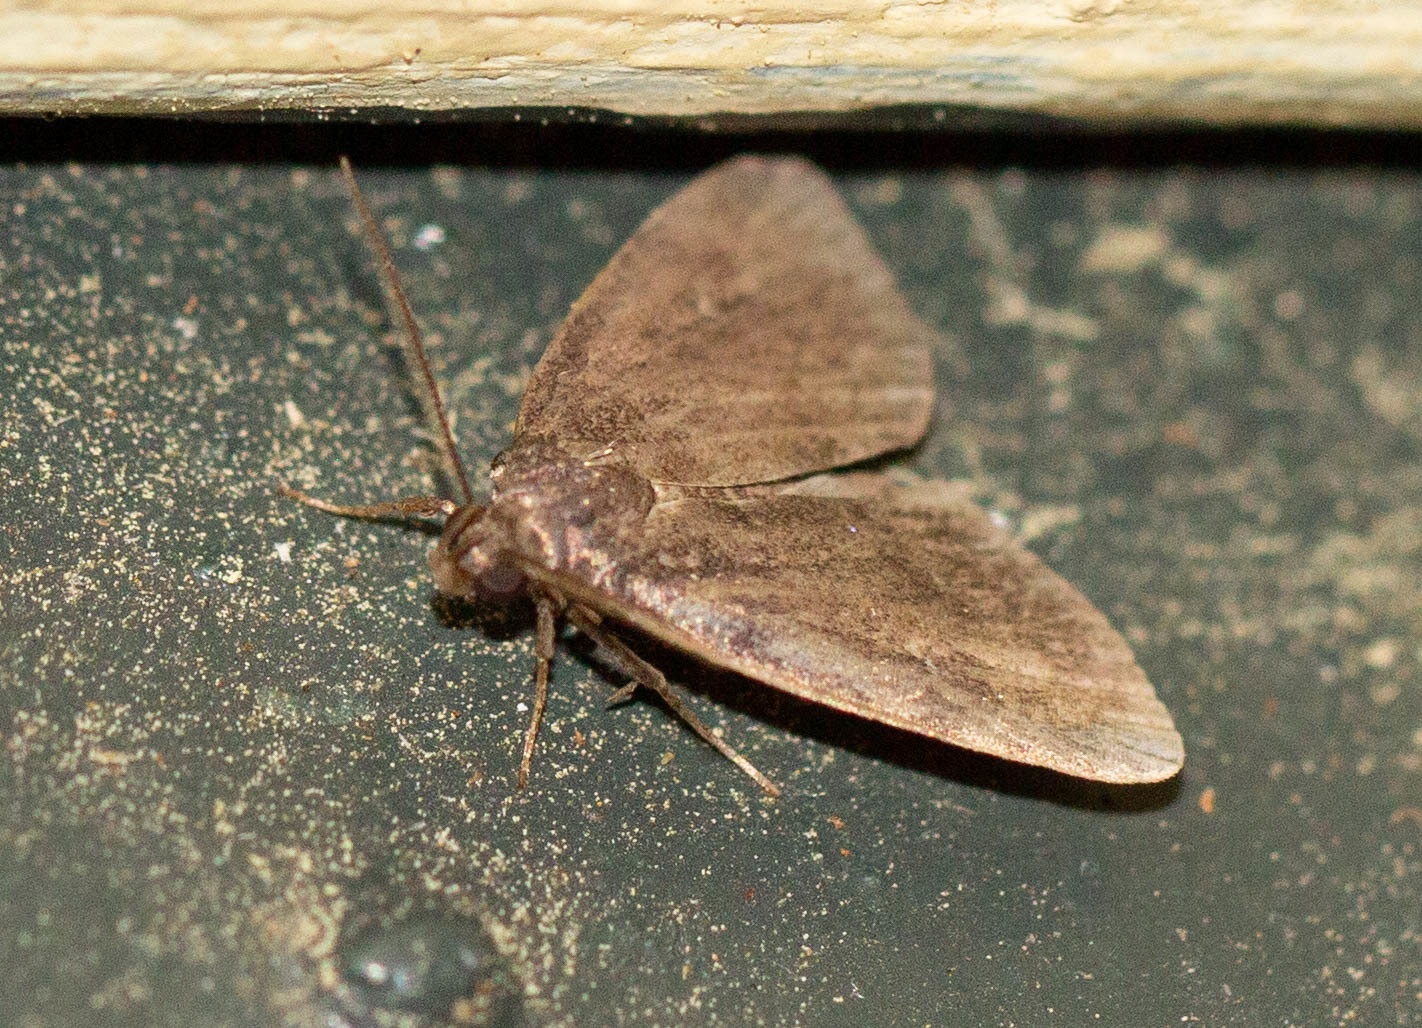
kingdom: Animalia
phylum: Arthropoda
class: Insecta
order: Lepidoptera
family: Erebidae
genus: Idia
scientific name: Idia rotundalis
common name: Rotund idia moth
